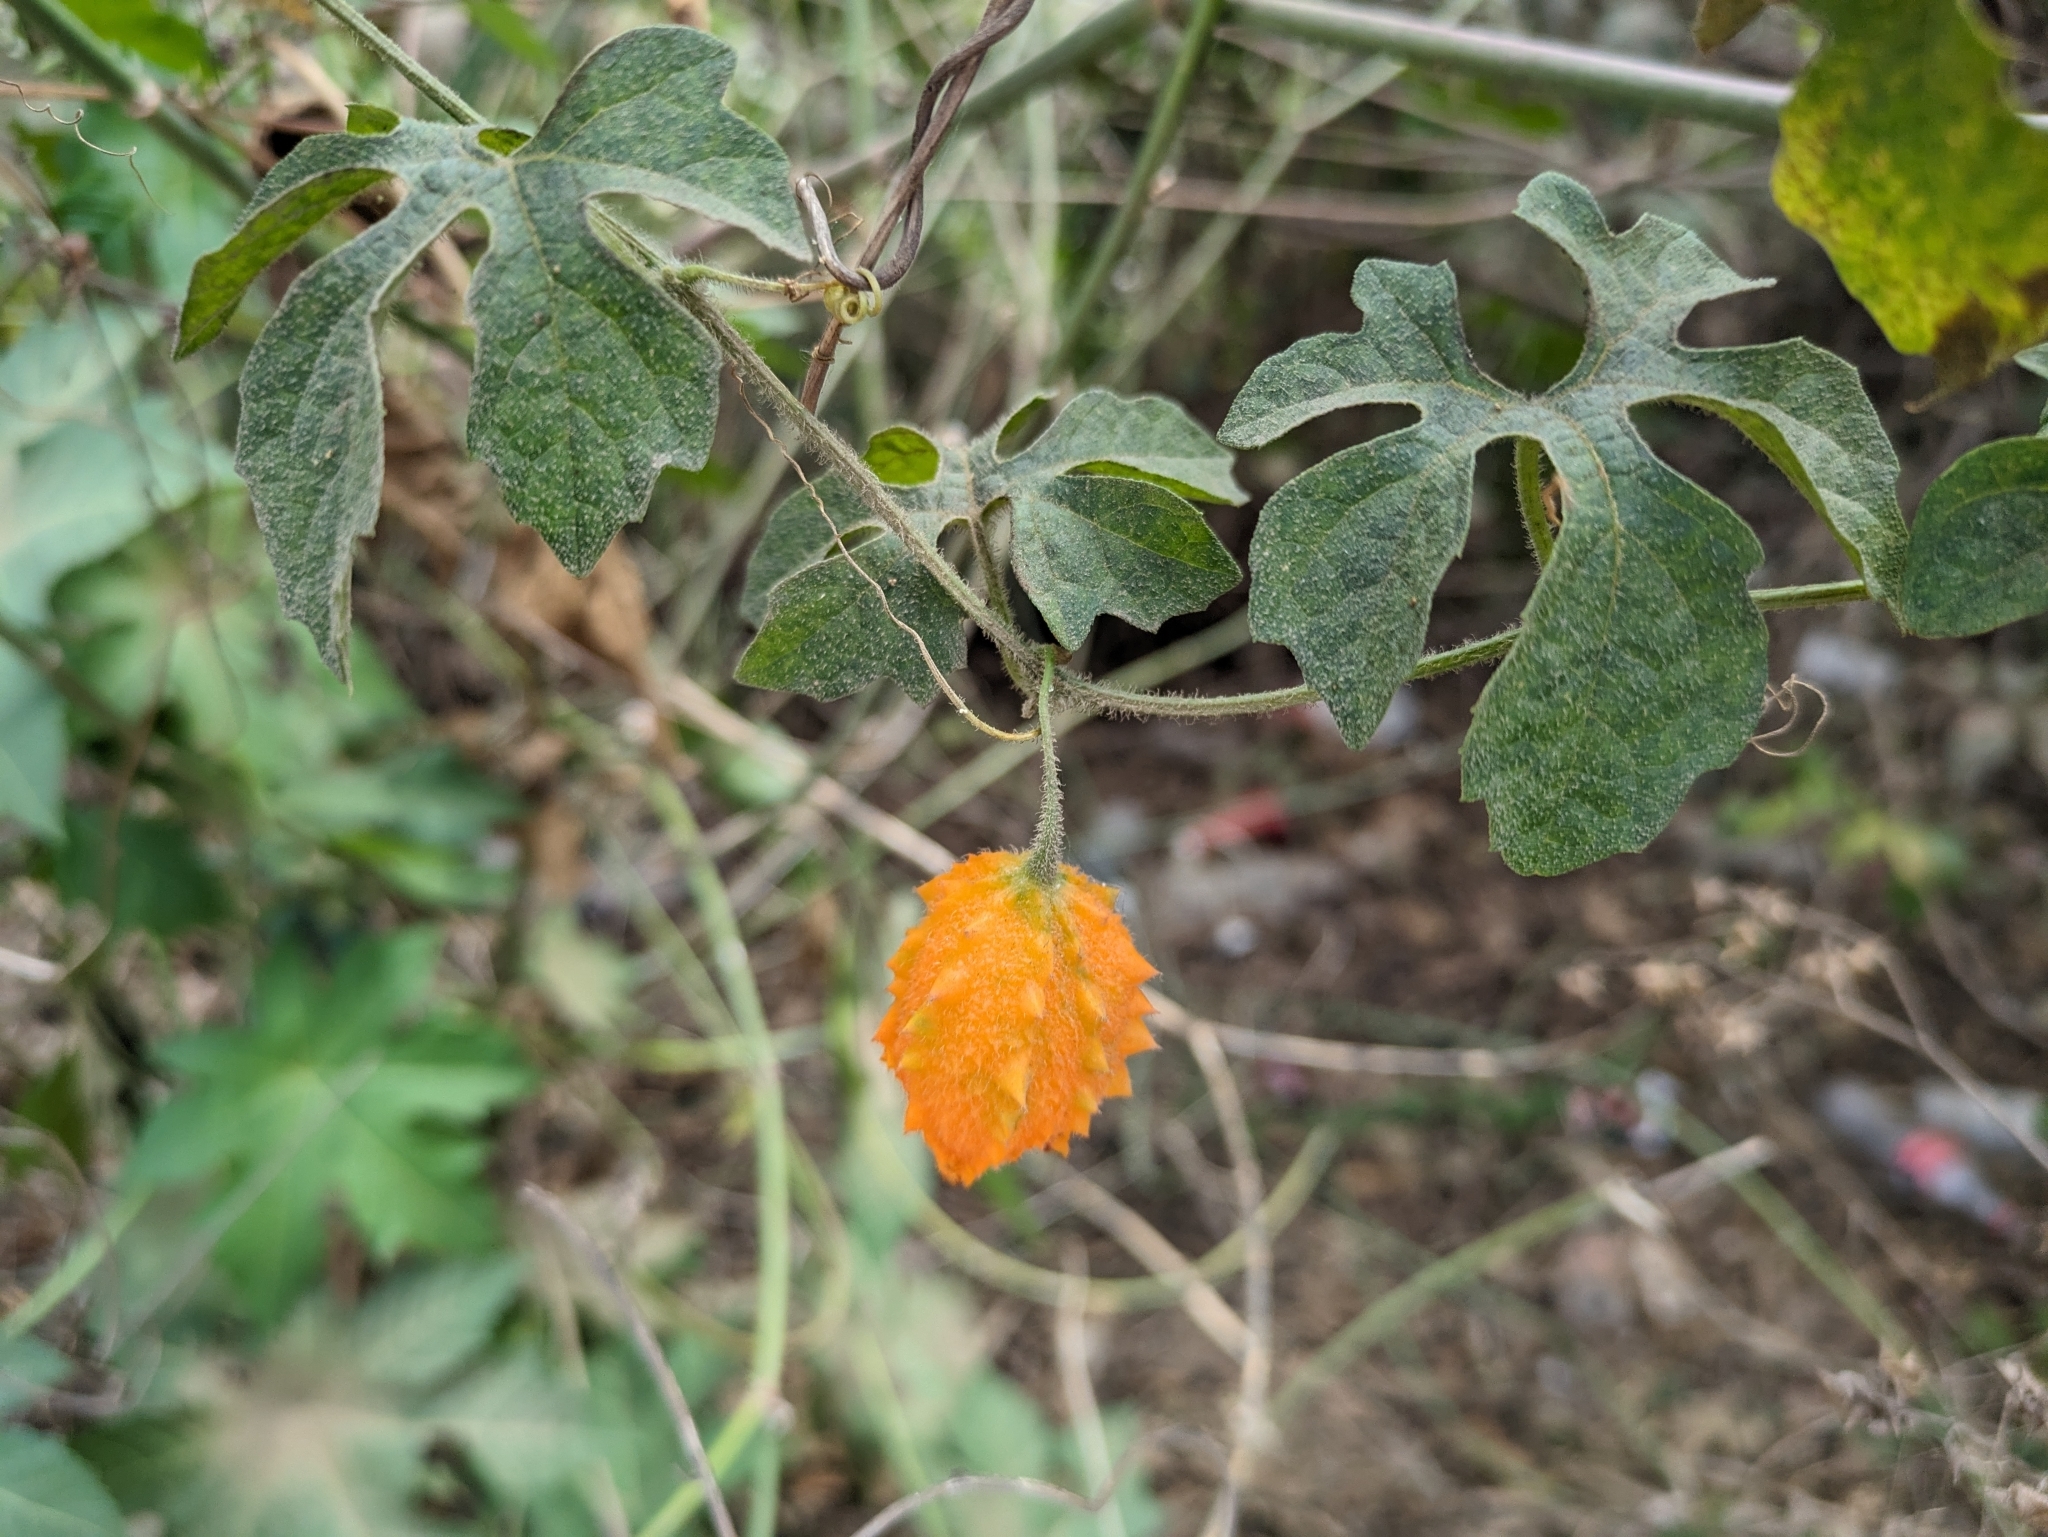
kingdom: Plantae
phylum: Tracheophyta
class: Magnoliopsida
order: Cucurbitales
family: Cucurbitaceae
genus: Momordica
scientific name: Momordica charantia
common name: Balsampear
